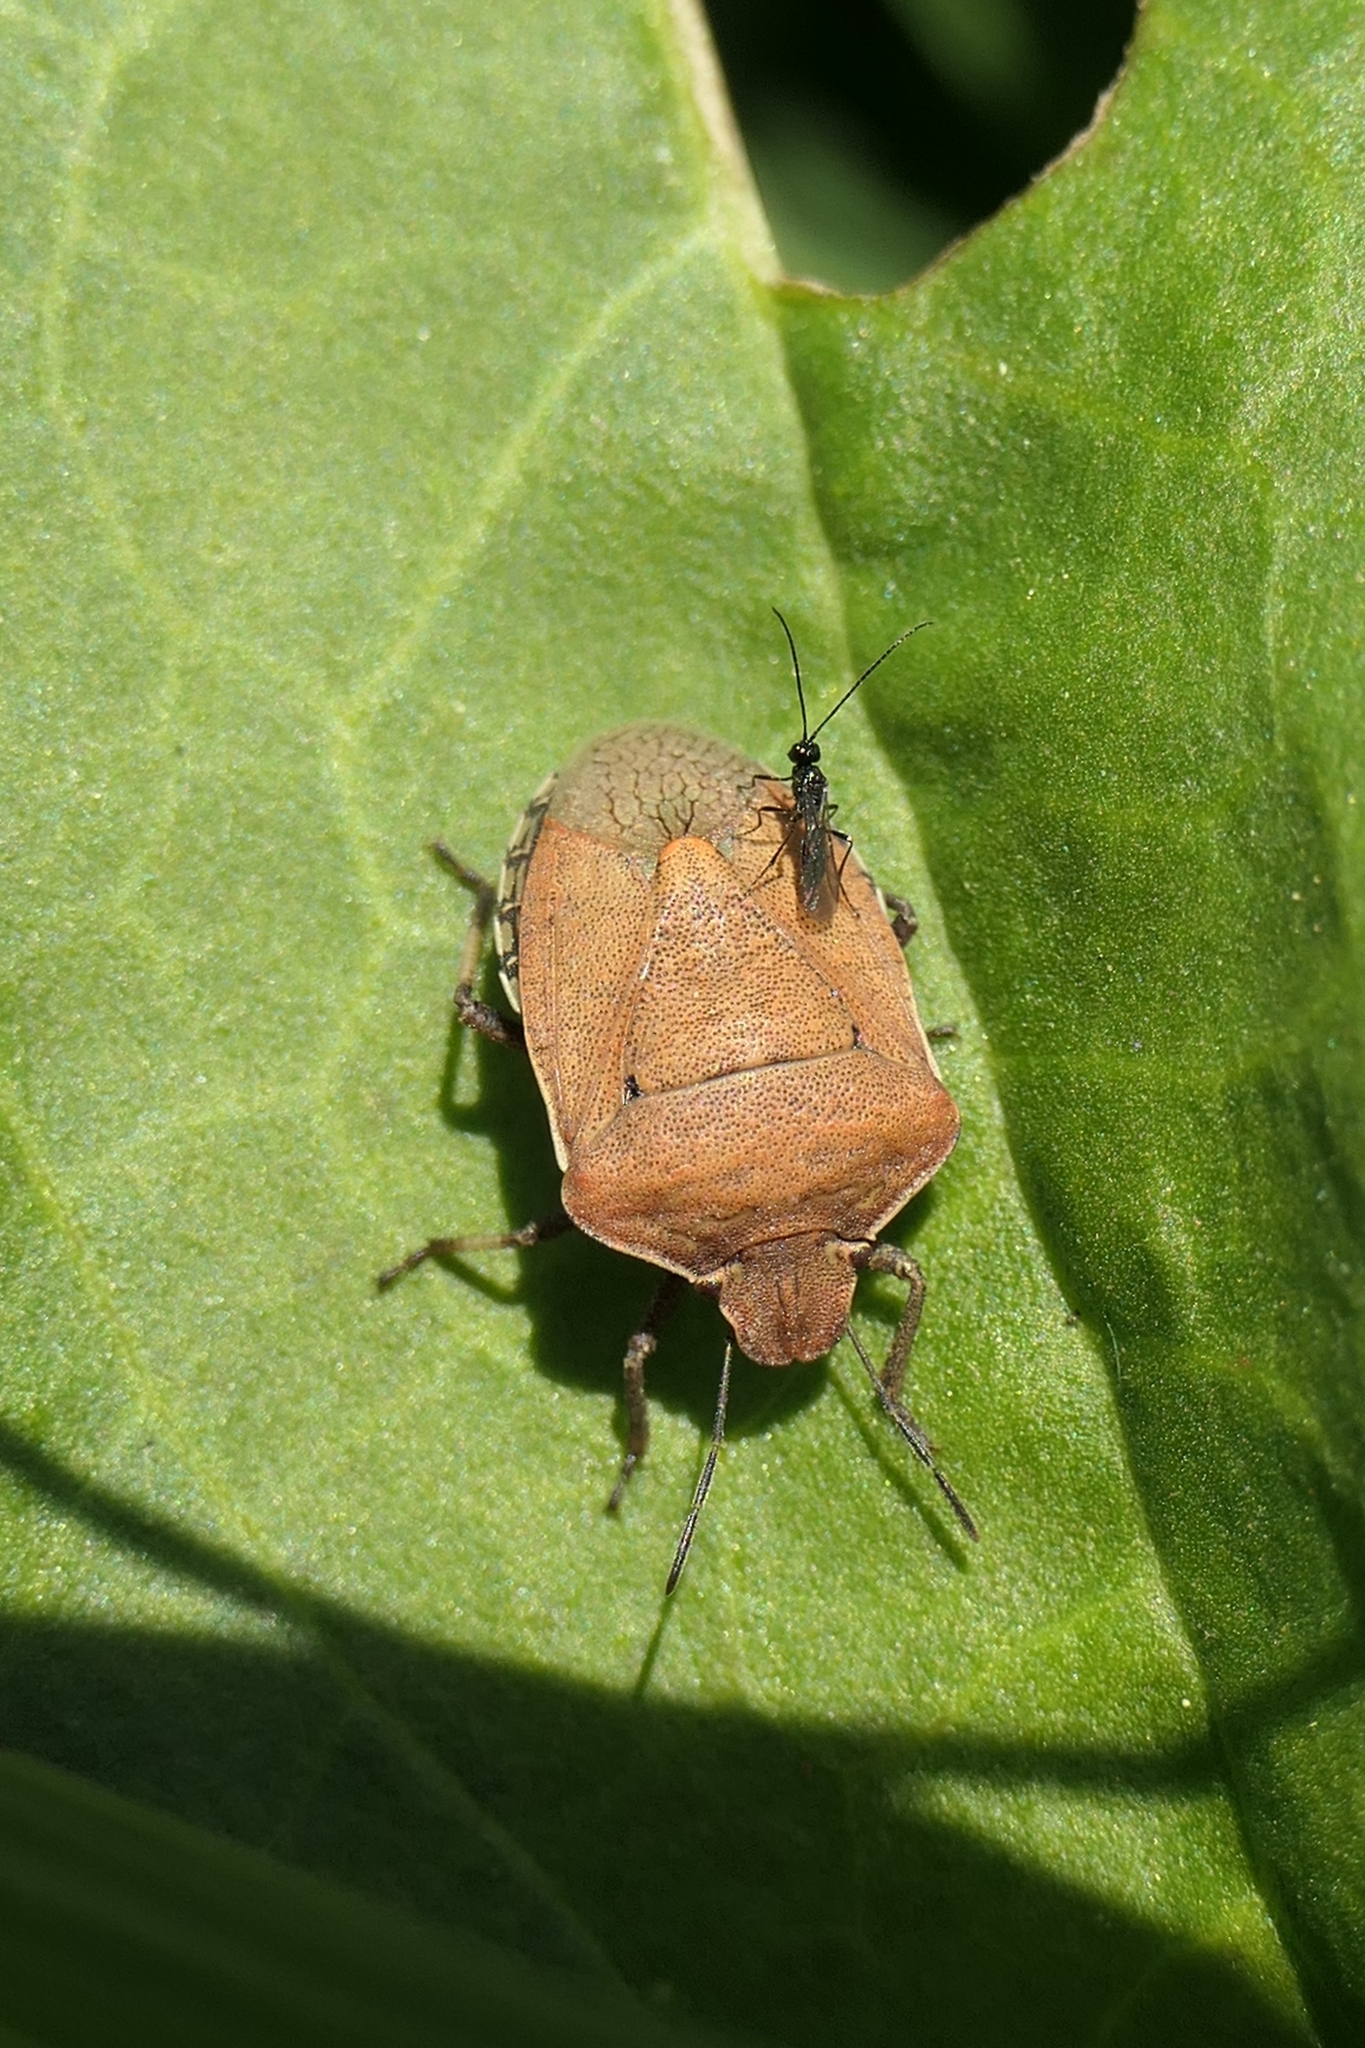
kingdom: Animalia
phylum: Arthropoda
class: Insecta
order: Hemiptera
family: Pentatomidae
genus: Dictyotus
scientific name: Dictyotus caenosus
